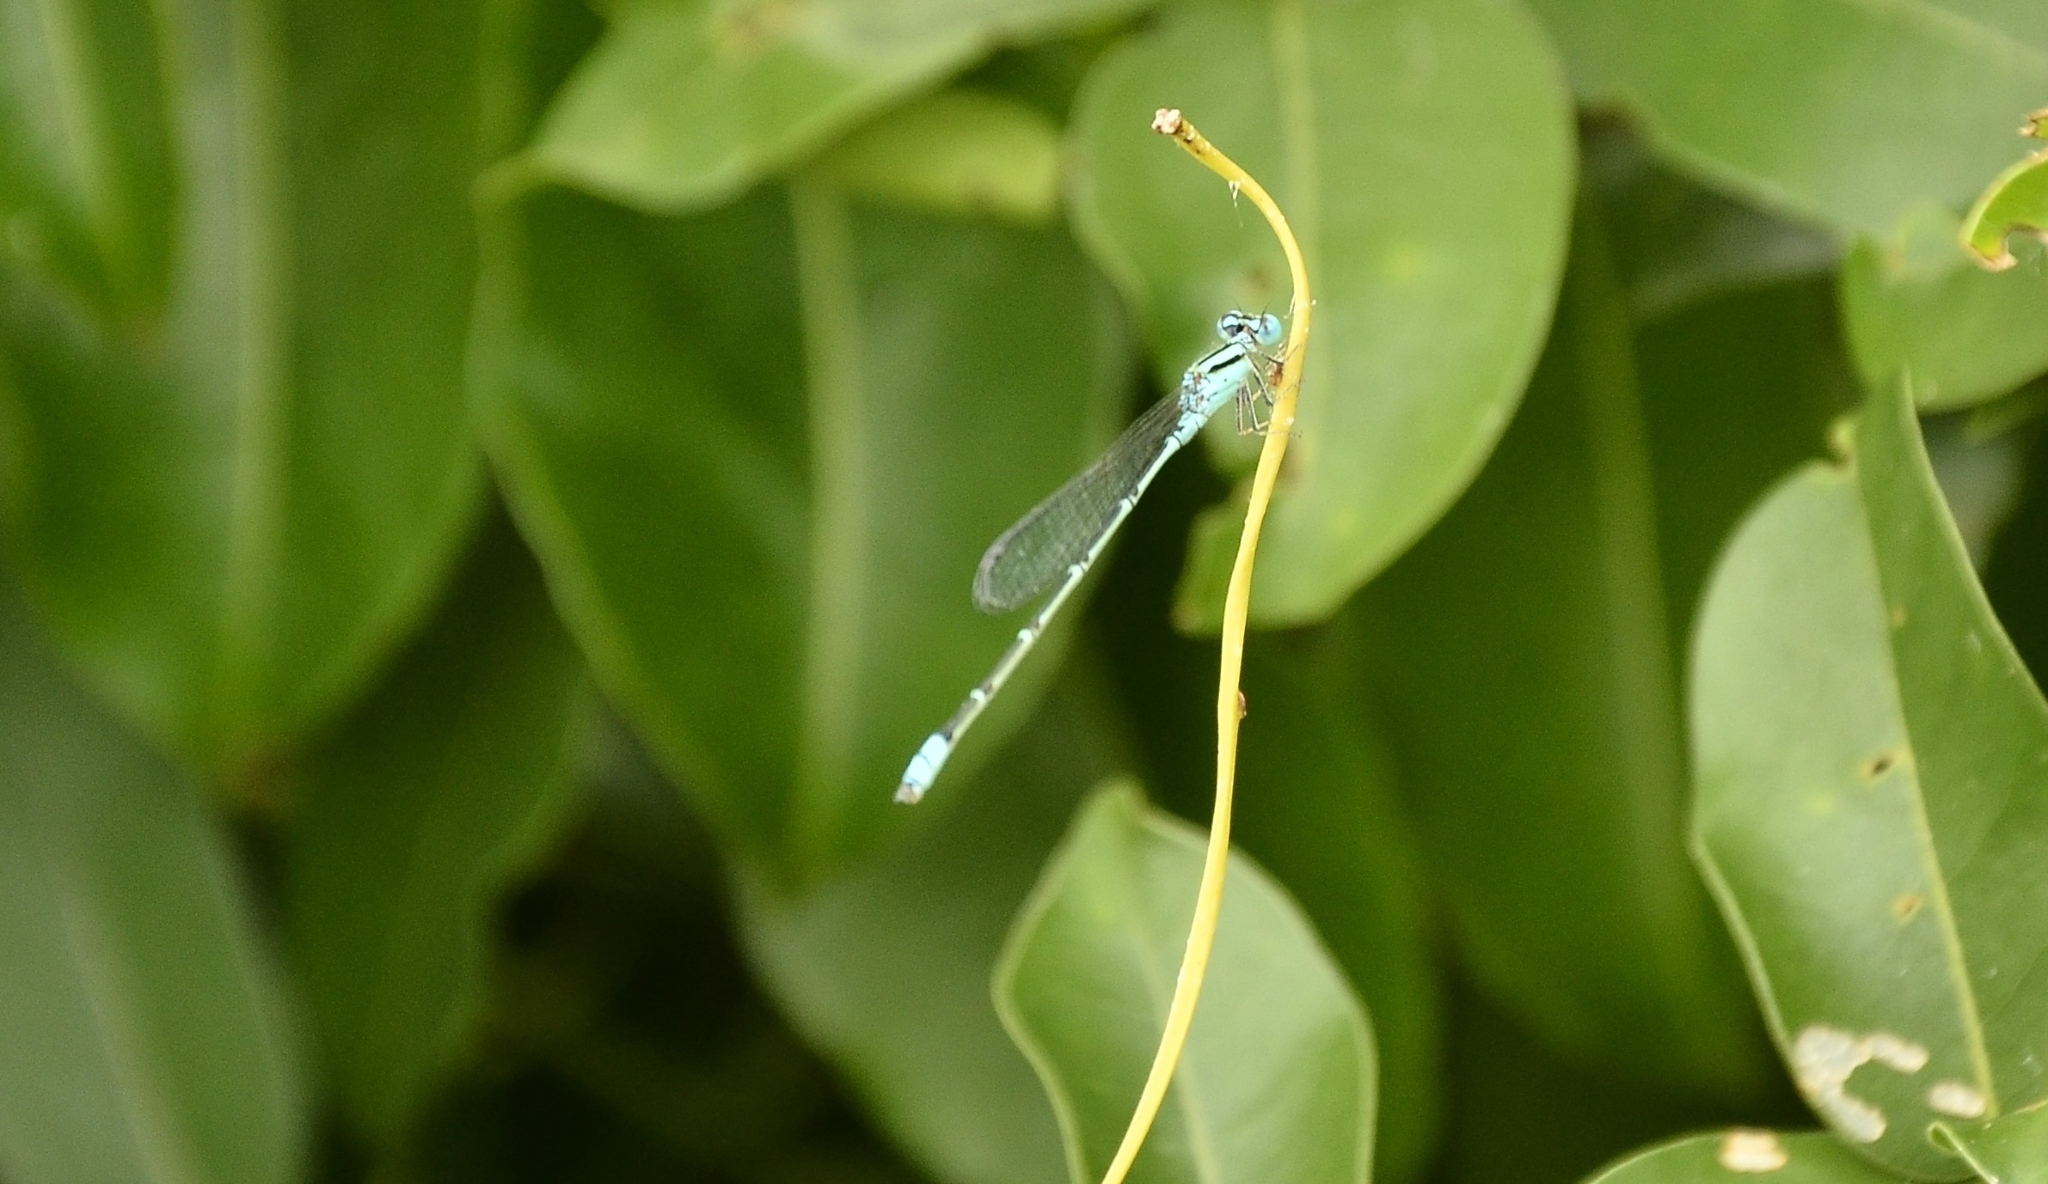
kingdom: Animalia
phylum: Arthropoda
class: Insecta
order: Odonata
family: Coenagrionidae
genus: Pseudagrion
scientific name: Pseudagrion microcephalum
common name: Blue riverdamsel
